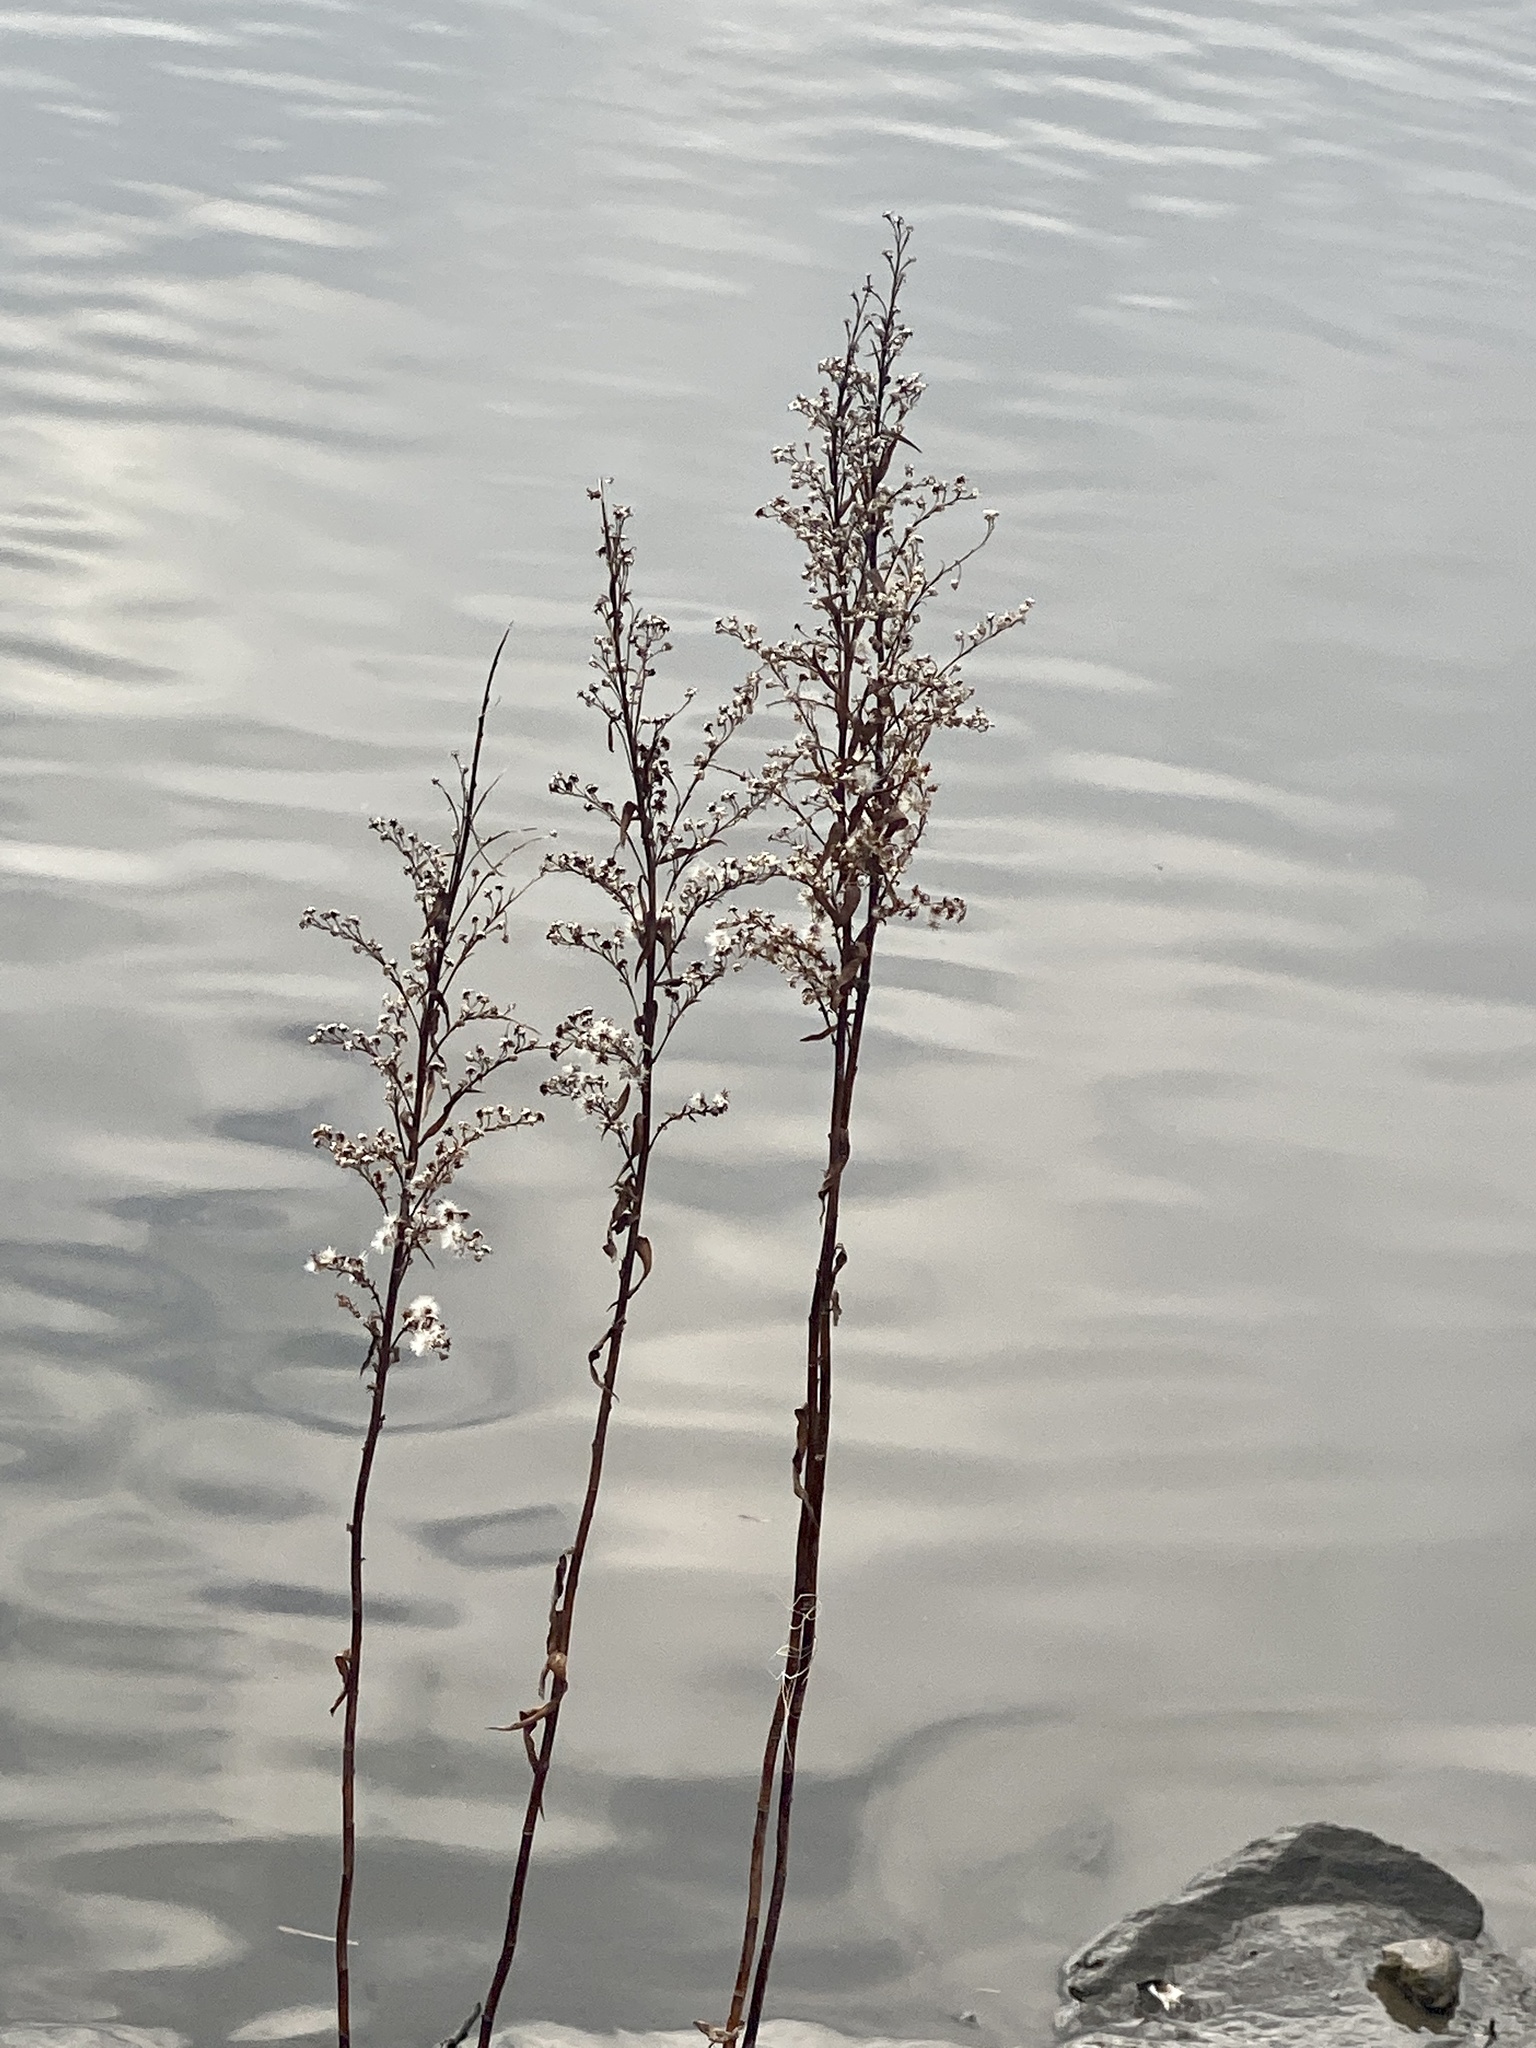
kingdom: Plantae
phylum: Tracheophyta
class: Magnoliopsida
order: Asterales
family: Asteraceae
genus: Solidago
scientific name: Solidago sempervirens
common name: Salt-marsh goldenrod
